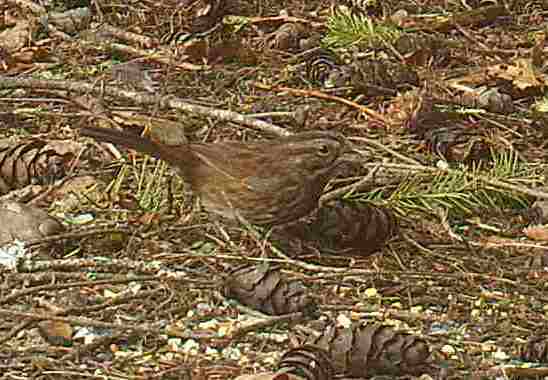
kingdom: Animalia
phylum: Chordata
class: Aves
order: Passeriformes
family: Passerellidae
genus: Melospiza
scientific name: Melospiza melodia
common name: Song sparrow
